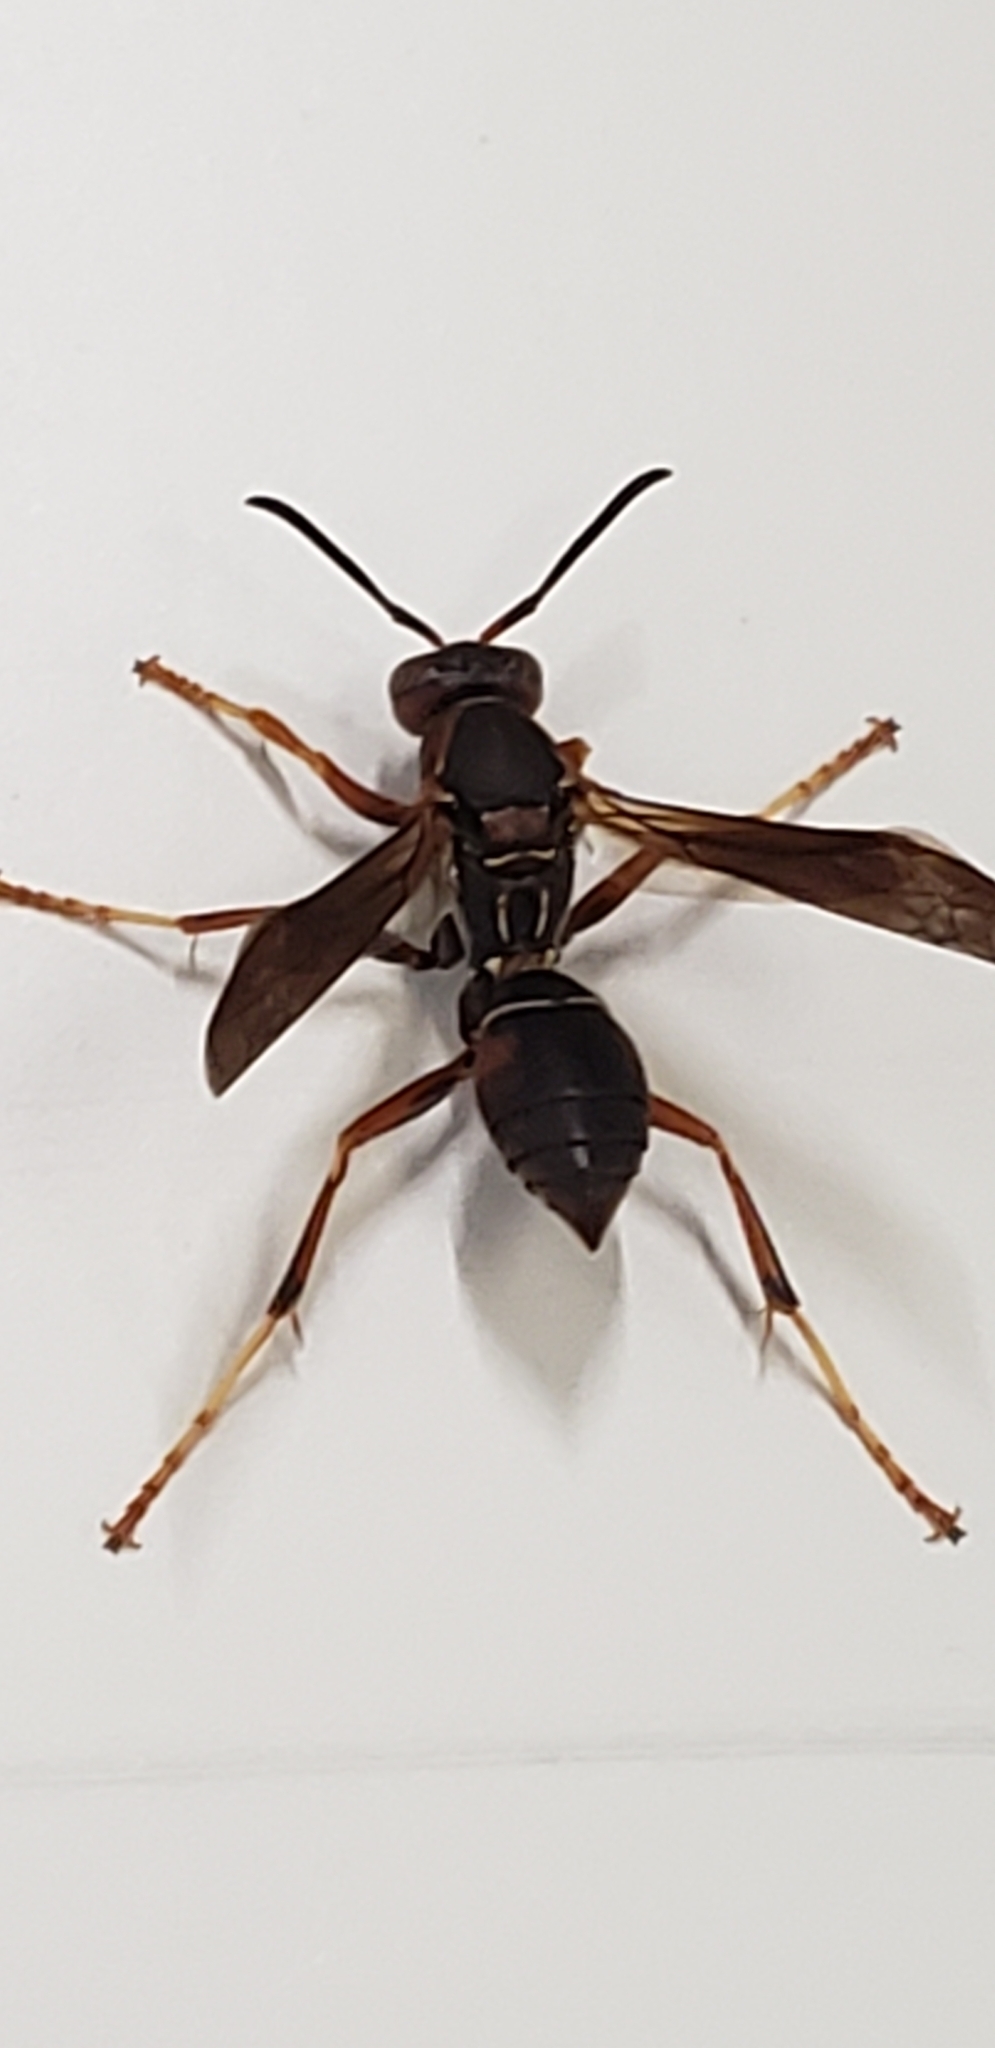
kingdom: Animalia
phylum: Arthropoda
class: Insecta
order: Hymenoptera
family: Eumenidae
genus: Polistes
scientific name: Polistes fuscatus
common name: Dark paper wasp
